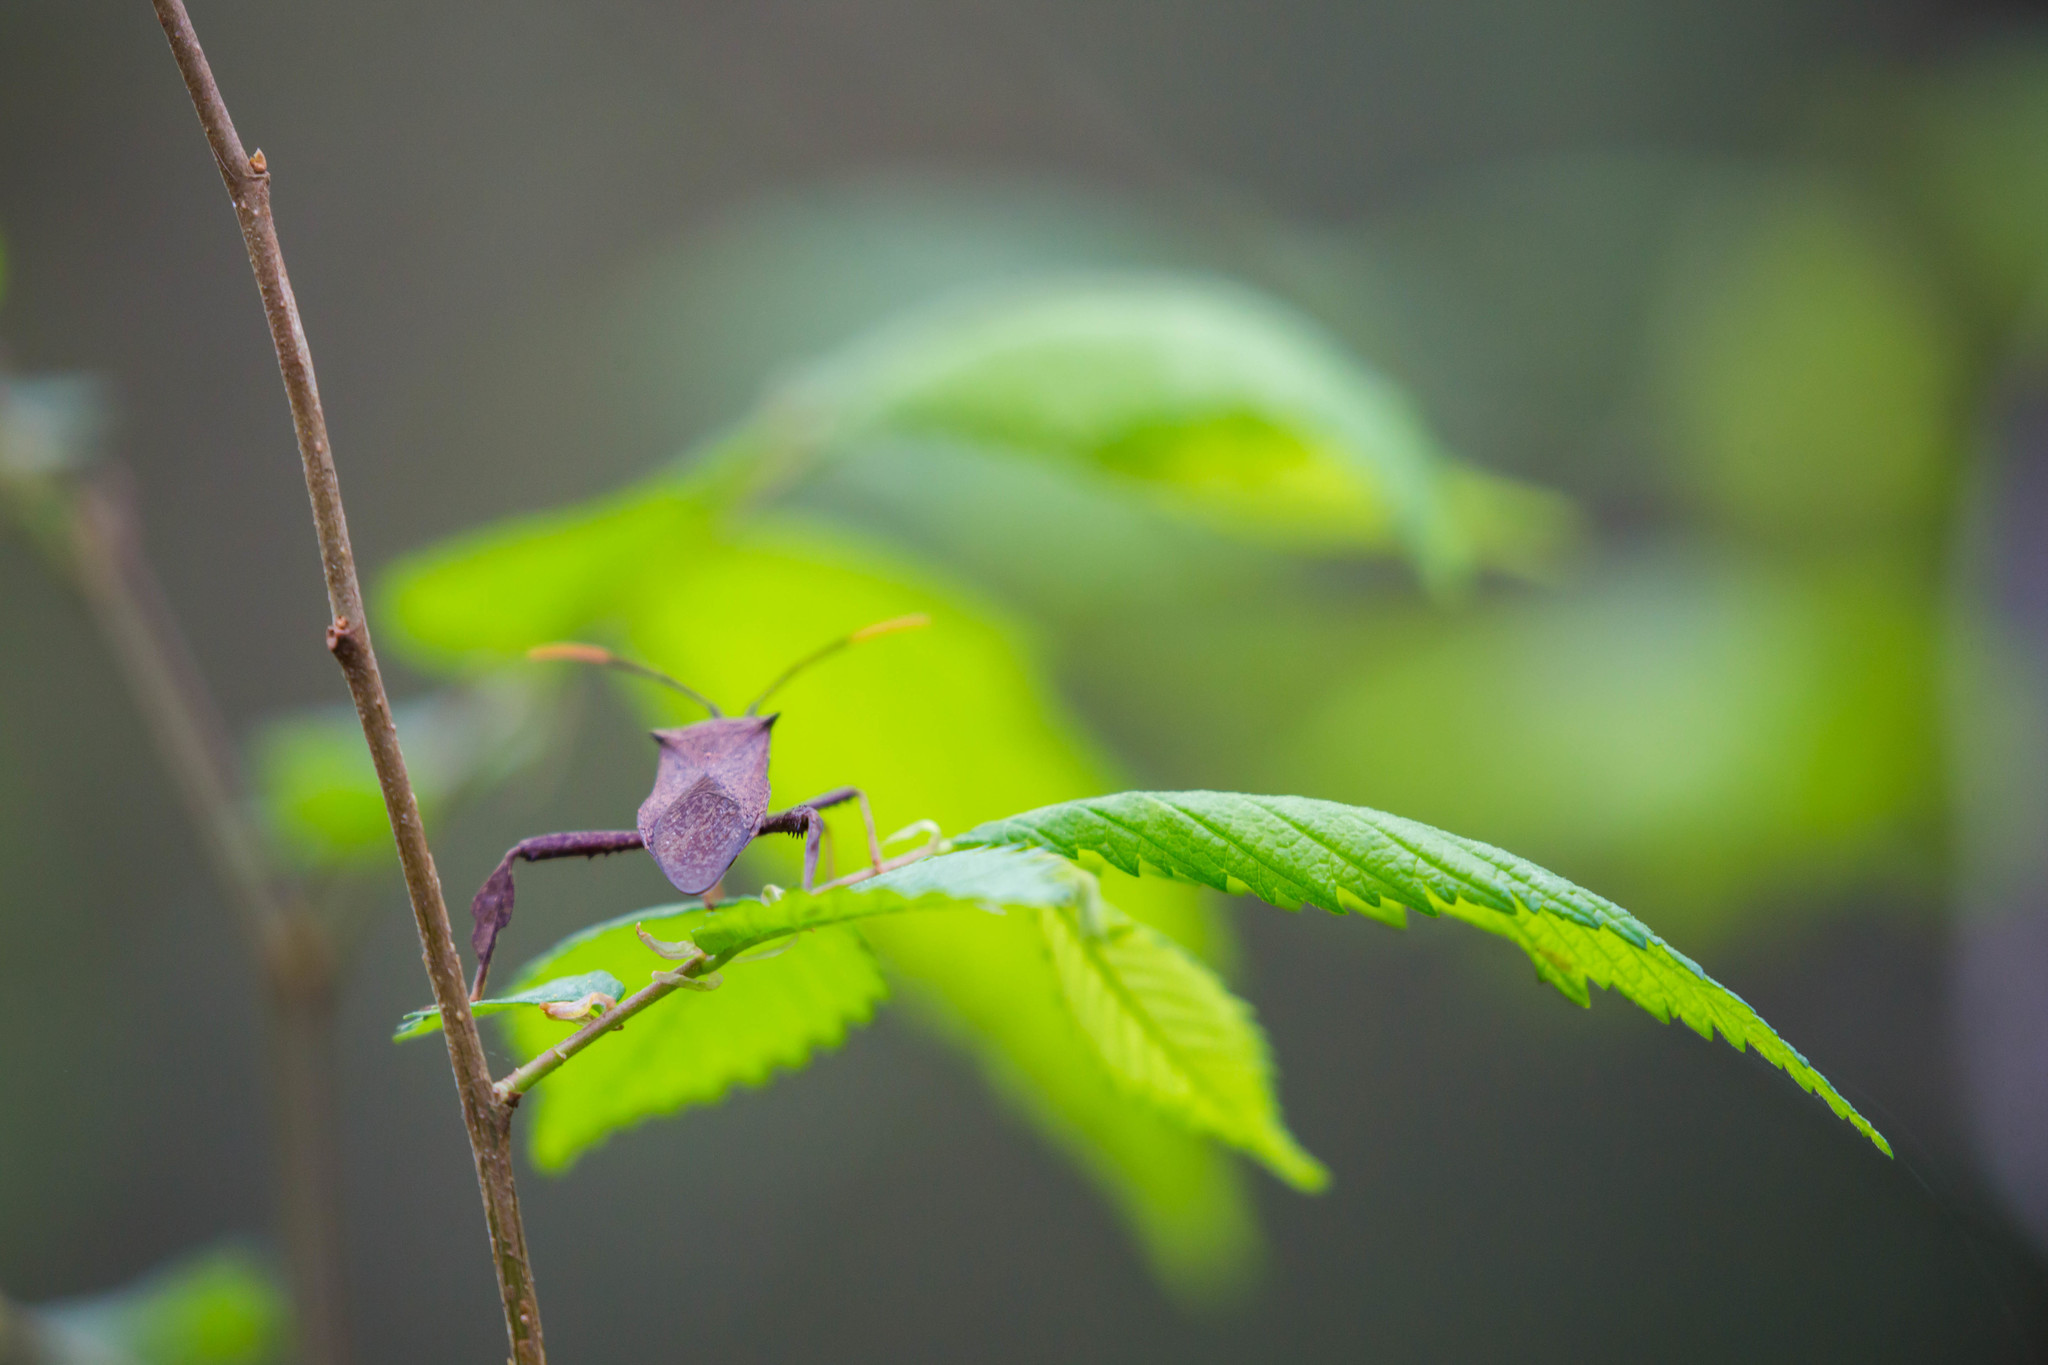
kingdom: Animalia
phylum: Arthropoda
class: Insecta
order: Hemiptera
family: Coreidae
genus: Acanthocephala
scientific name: Acanthocephala terminalis
